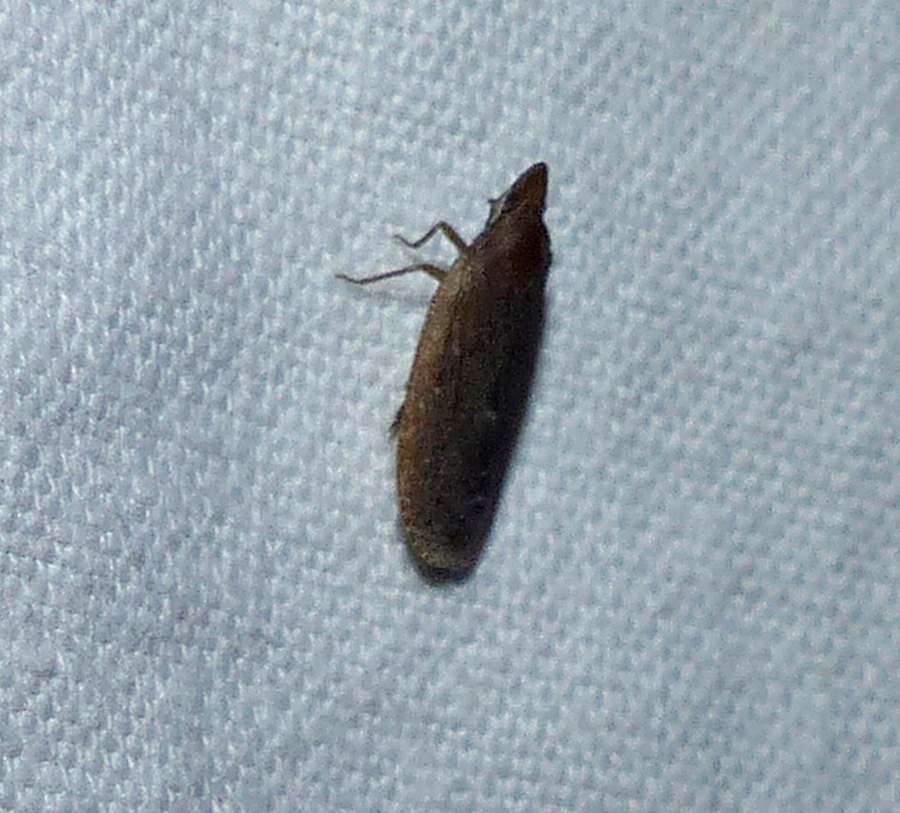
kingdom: Animalia
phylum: Arthropoda
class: Insecta
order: Hemiptera
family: Achilidae
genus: Cixidia
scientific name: Cixidia fusca
